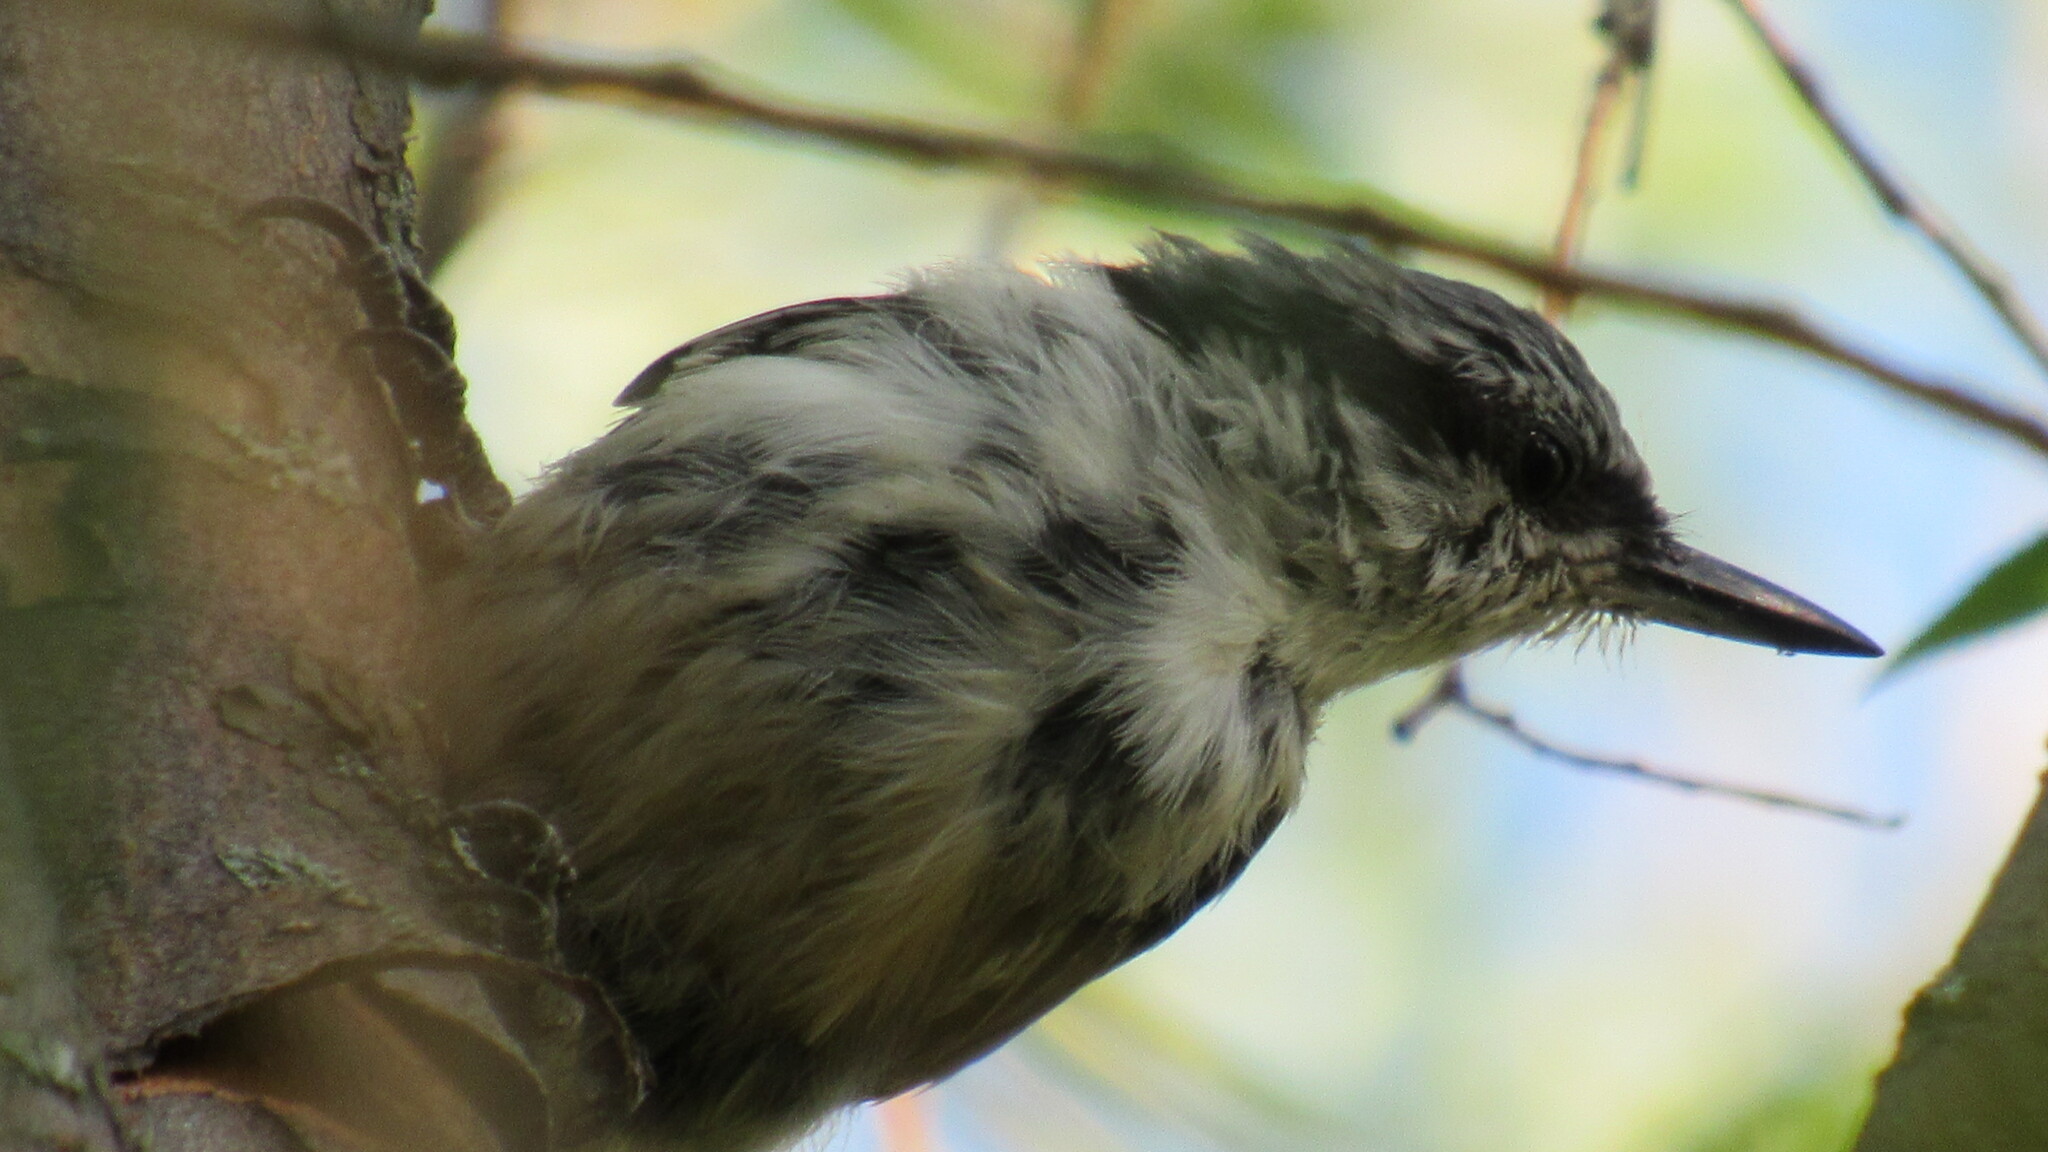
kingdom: Animalia
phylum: Chordata
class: Aves
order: Passeriformes
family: Sittidae
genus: Sitta
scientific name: Sitta europaea
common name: Eurasian nuthatch
